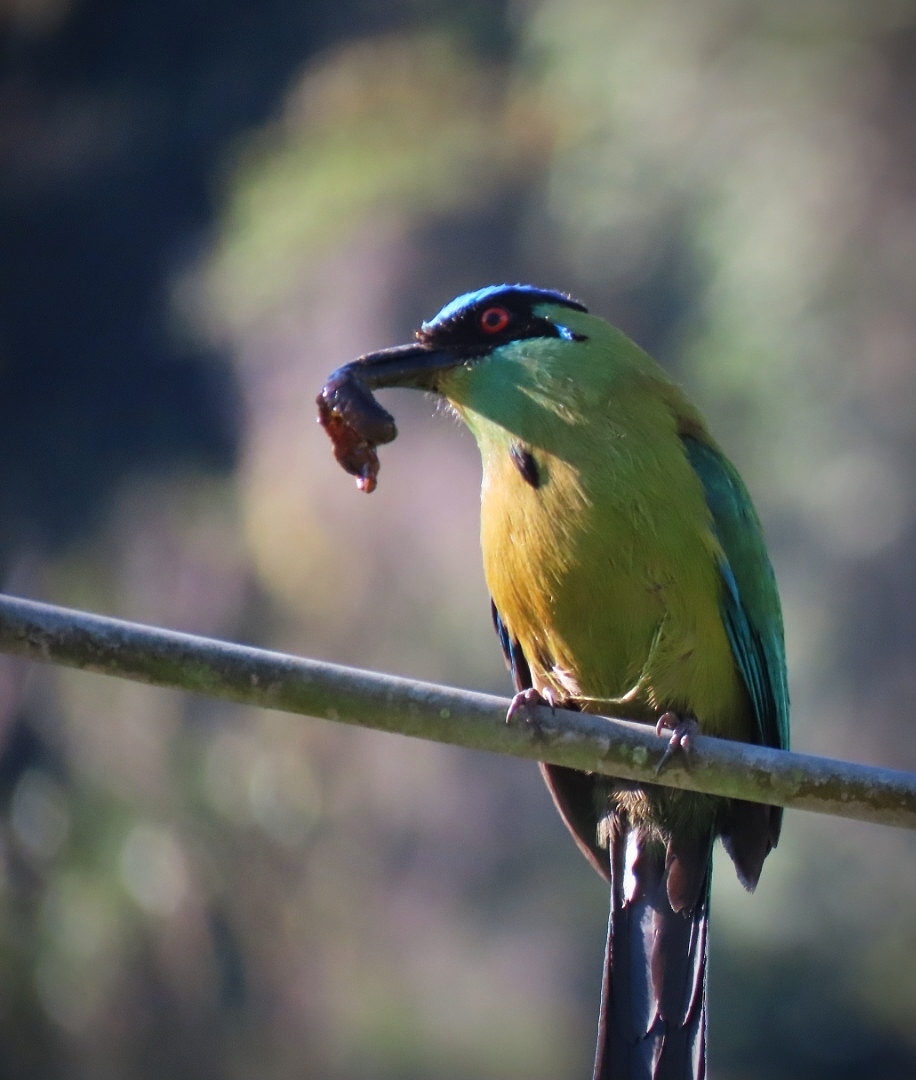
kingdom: Animalia
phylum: Chordata
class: Aves
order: Coraciiformes
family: Momotidae
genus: Momotus
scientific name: Momotus aequatorialis
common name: Andean motmot
